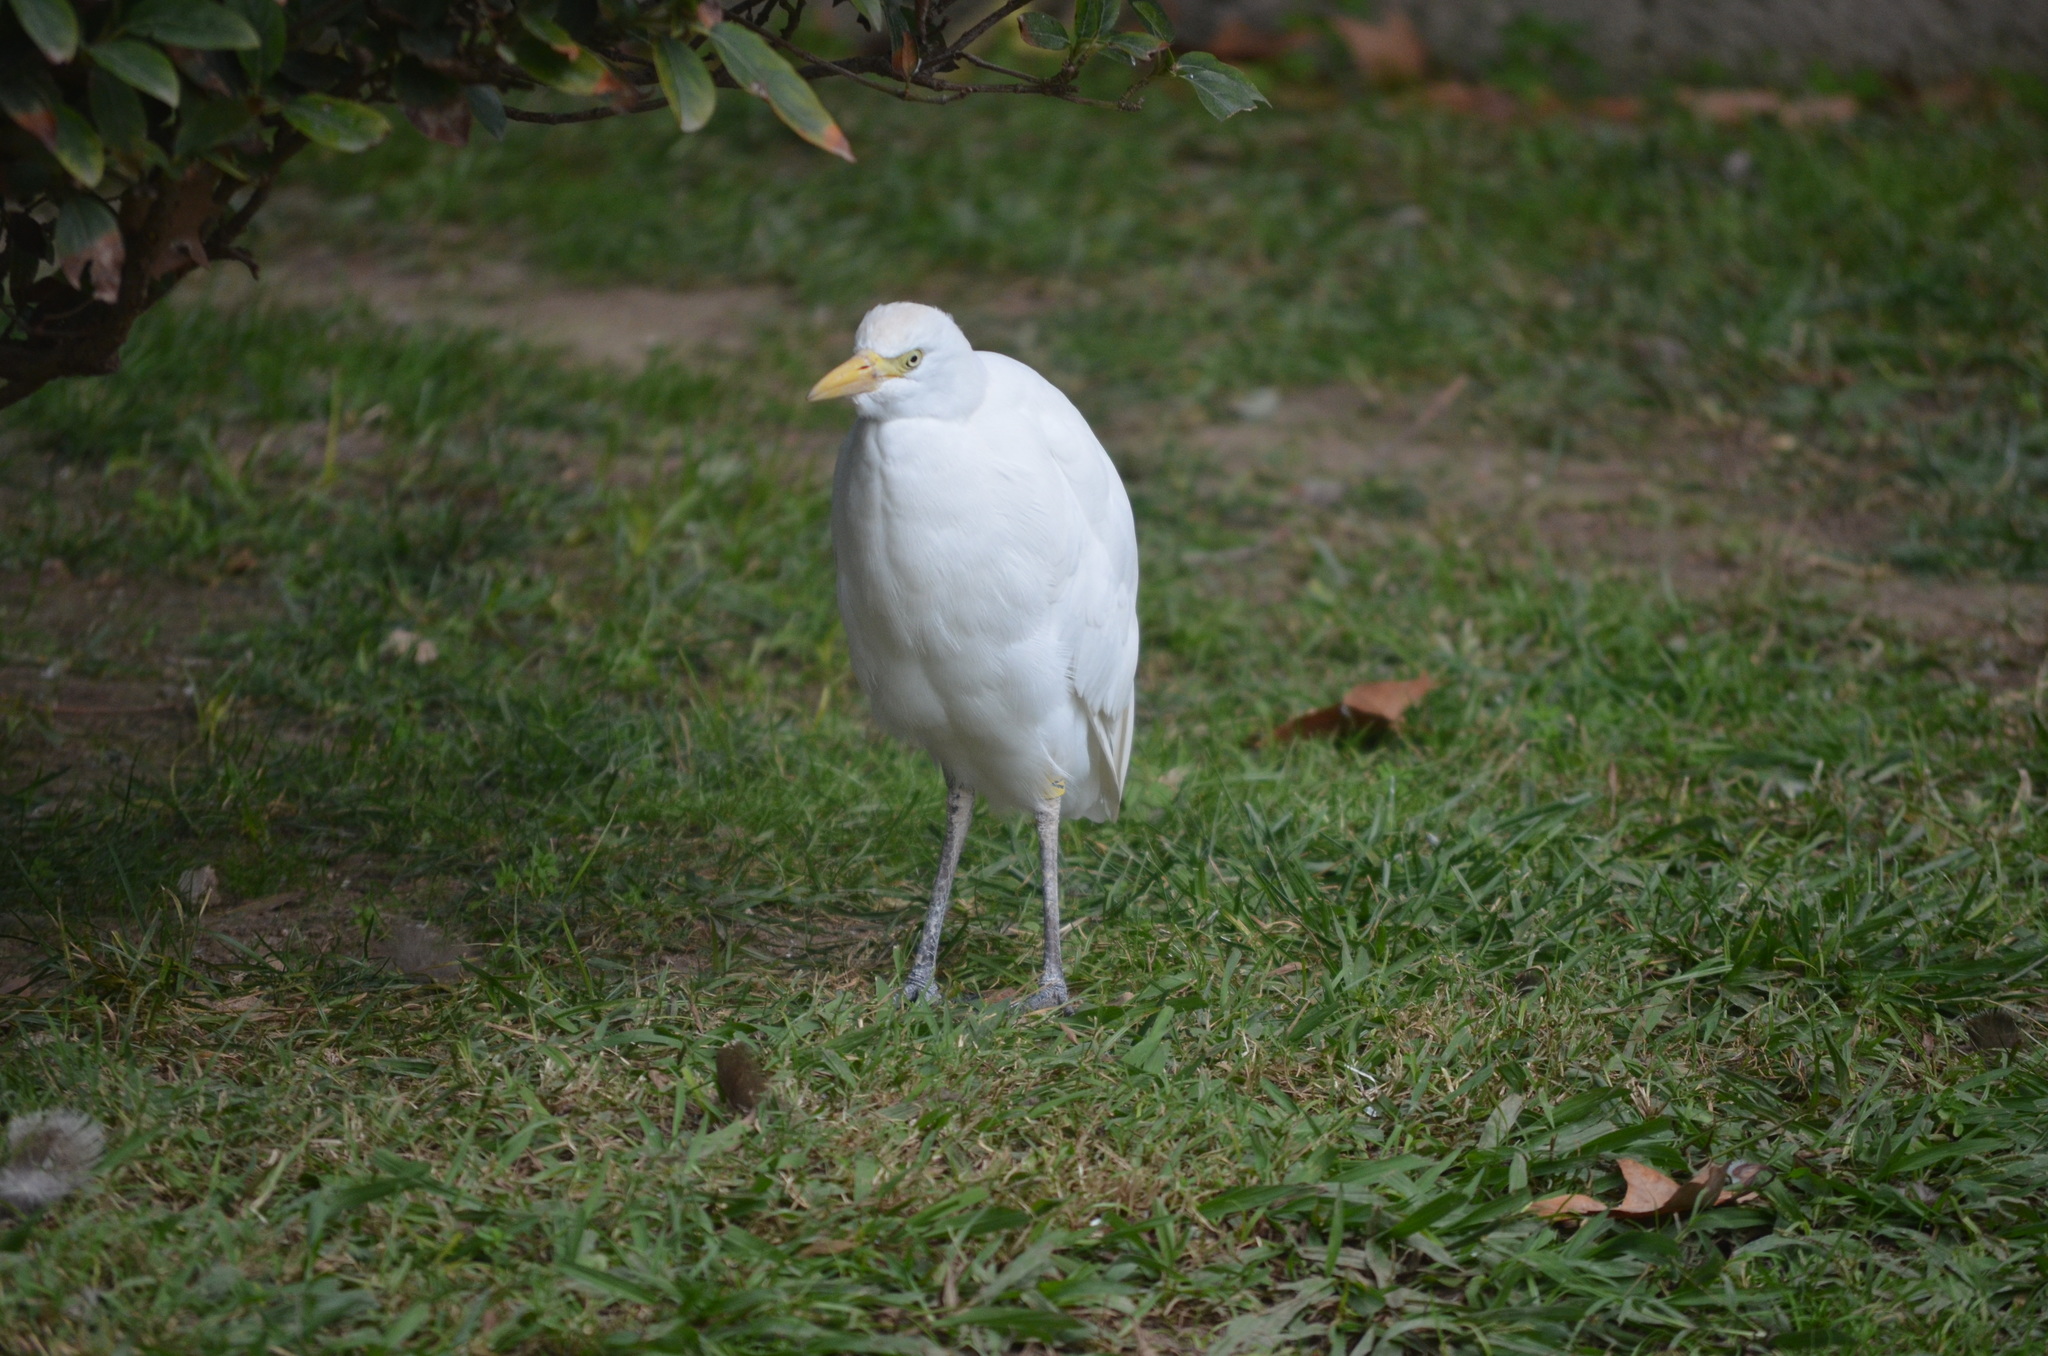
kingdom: Animalia
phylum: Chordata
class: Aves
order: Pelecaniformes
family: Ardeidae
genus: Bubulcus
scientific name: Bubulcus ibis
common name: Cattle egret
